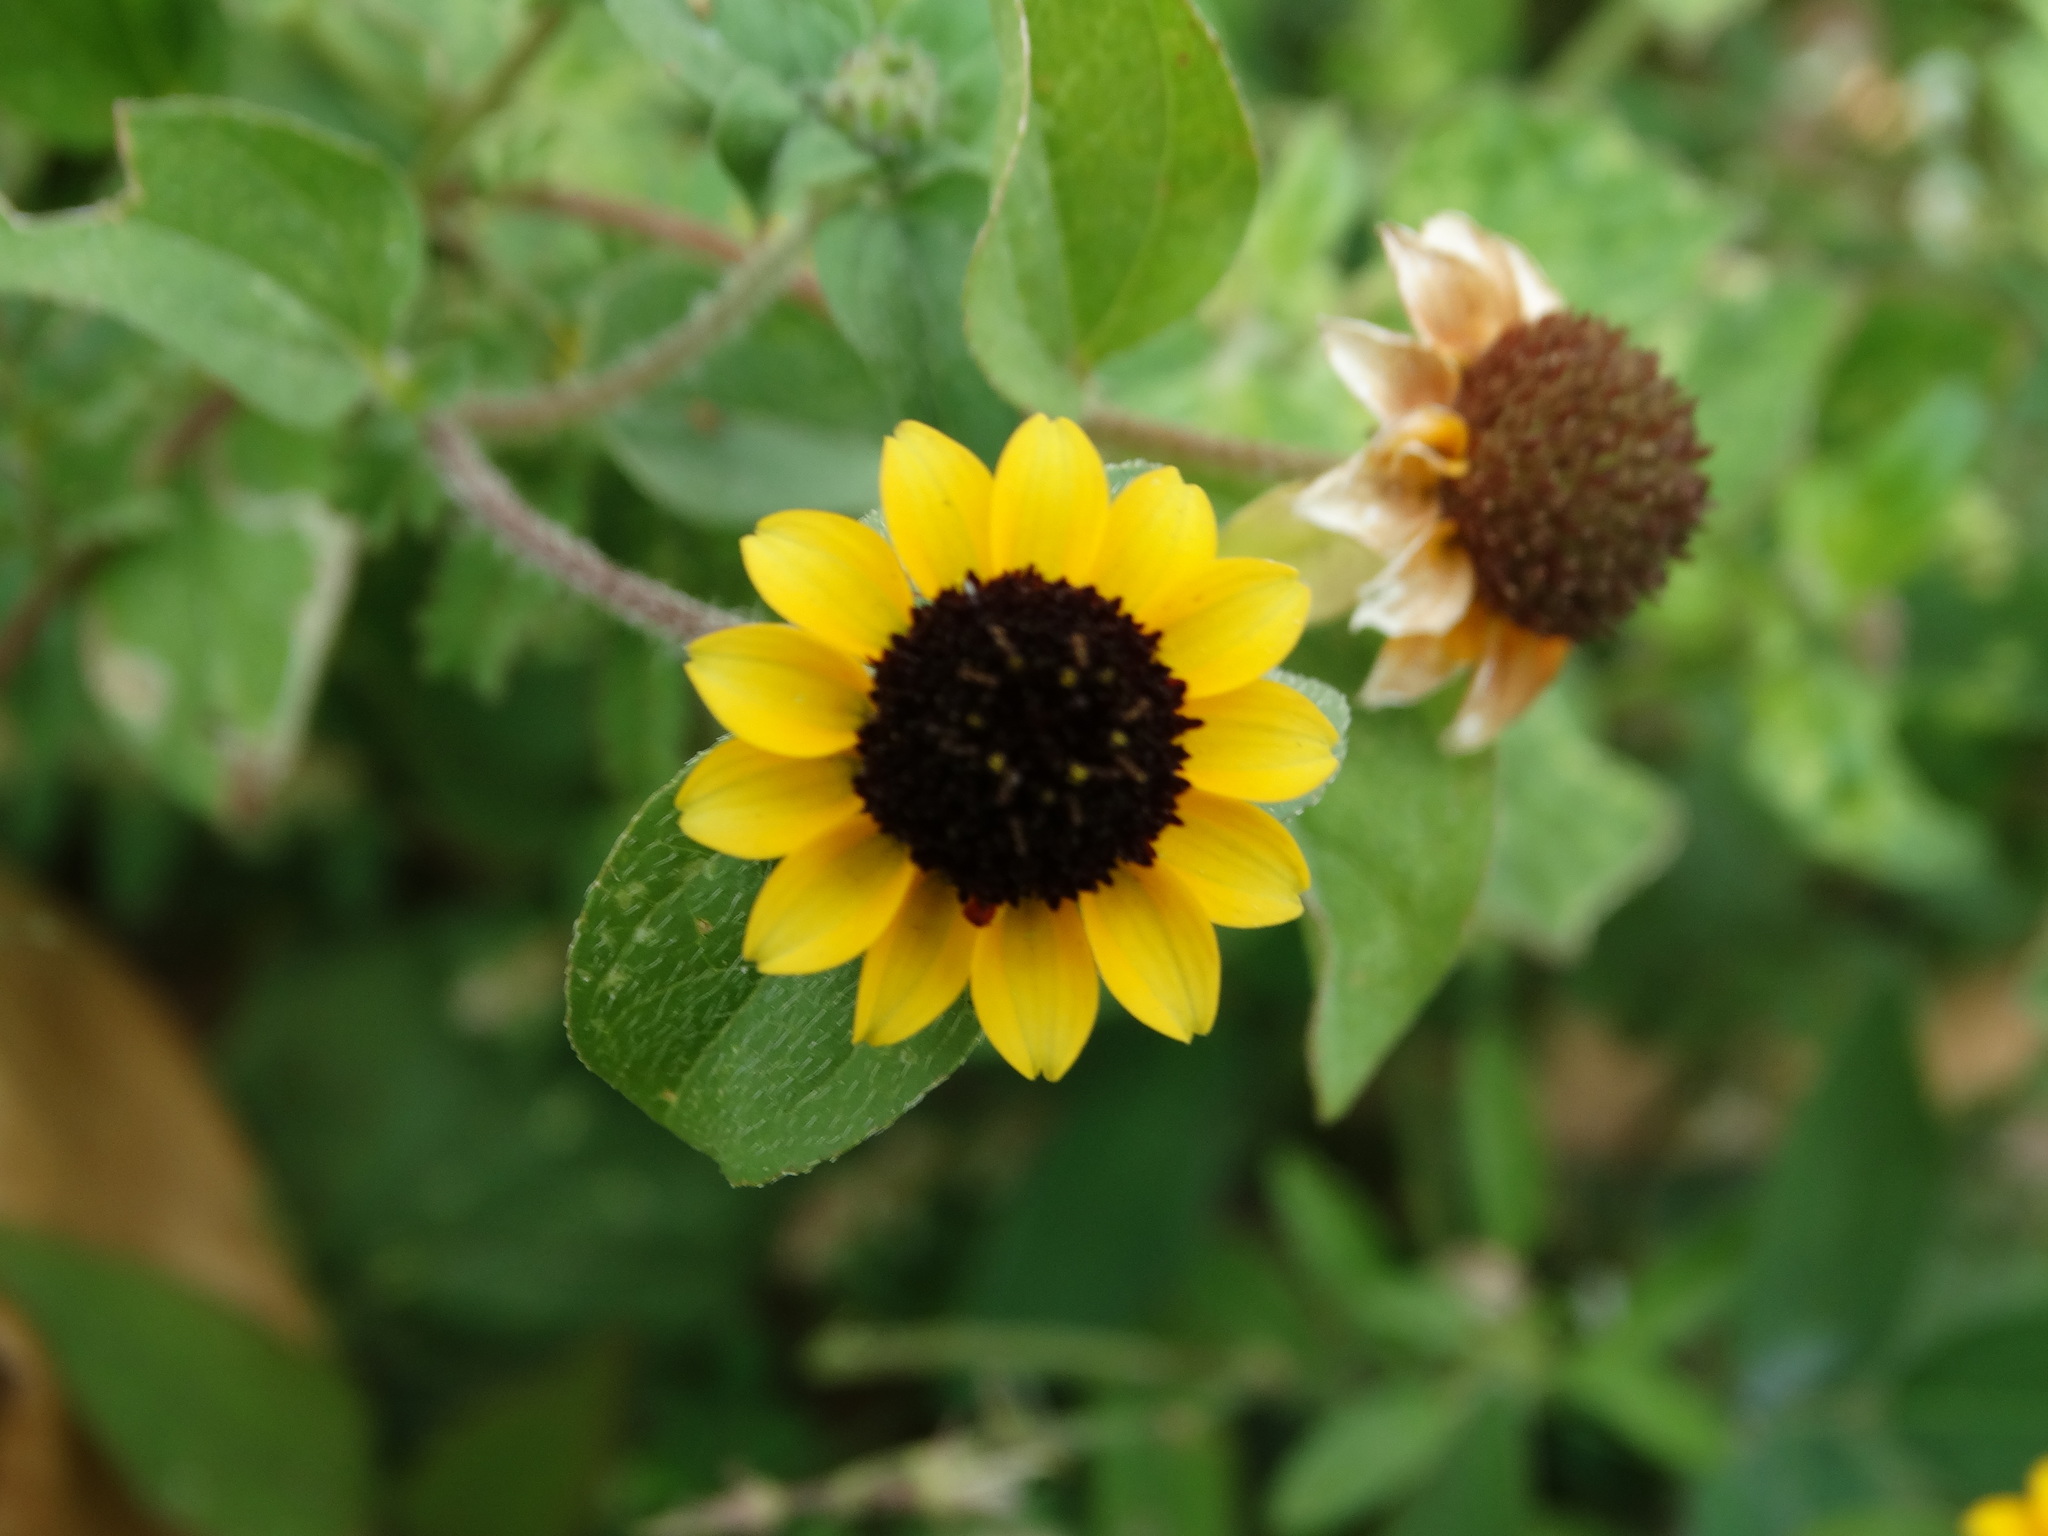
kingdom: Plantae
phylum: Tracheophyta
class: Magnoliopsida
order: Asterales
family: Asteraceae
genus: Sanvitalia
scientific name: Sanvitalia procumbens
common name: Mexican creeping zinnia
